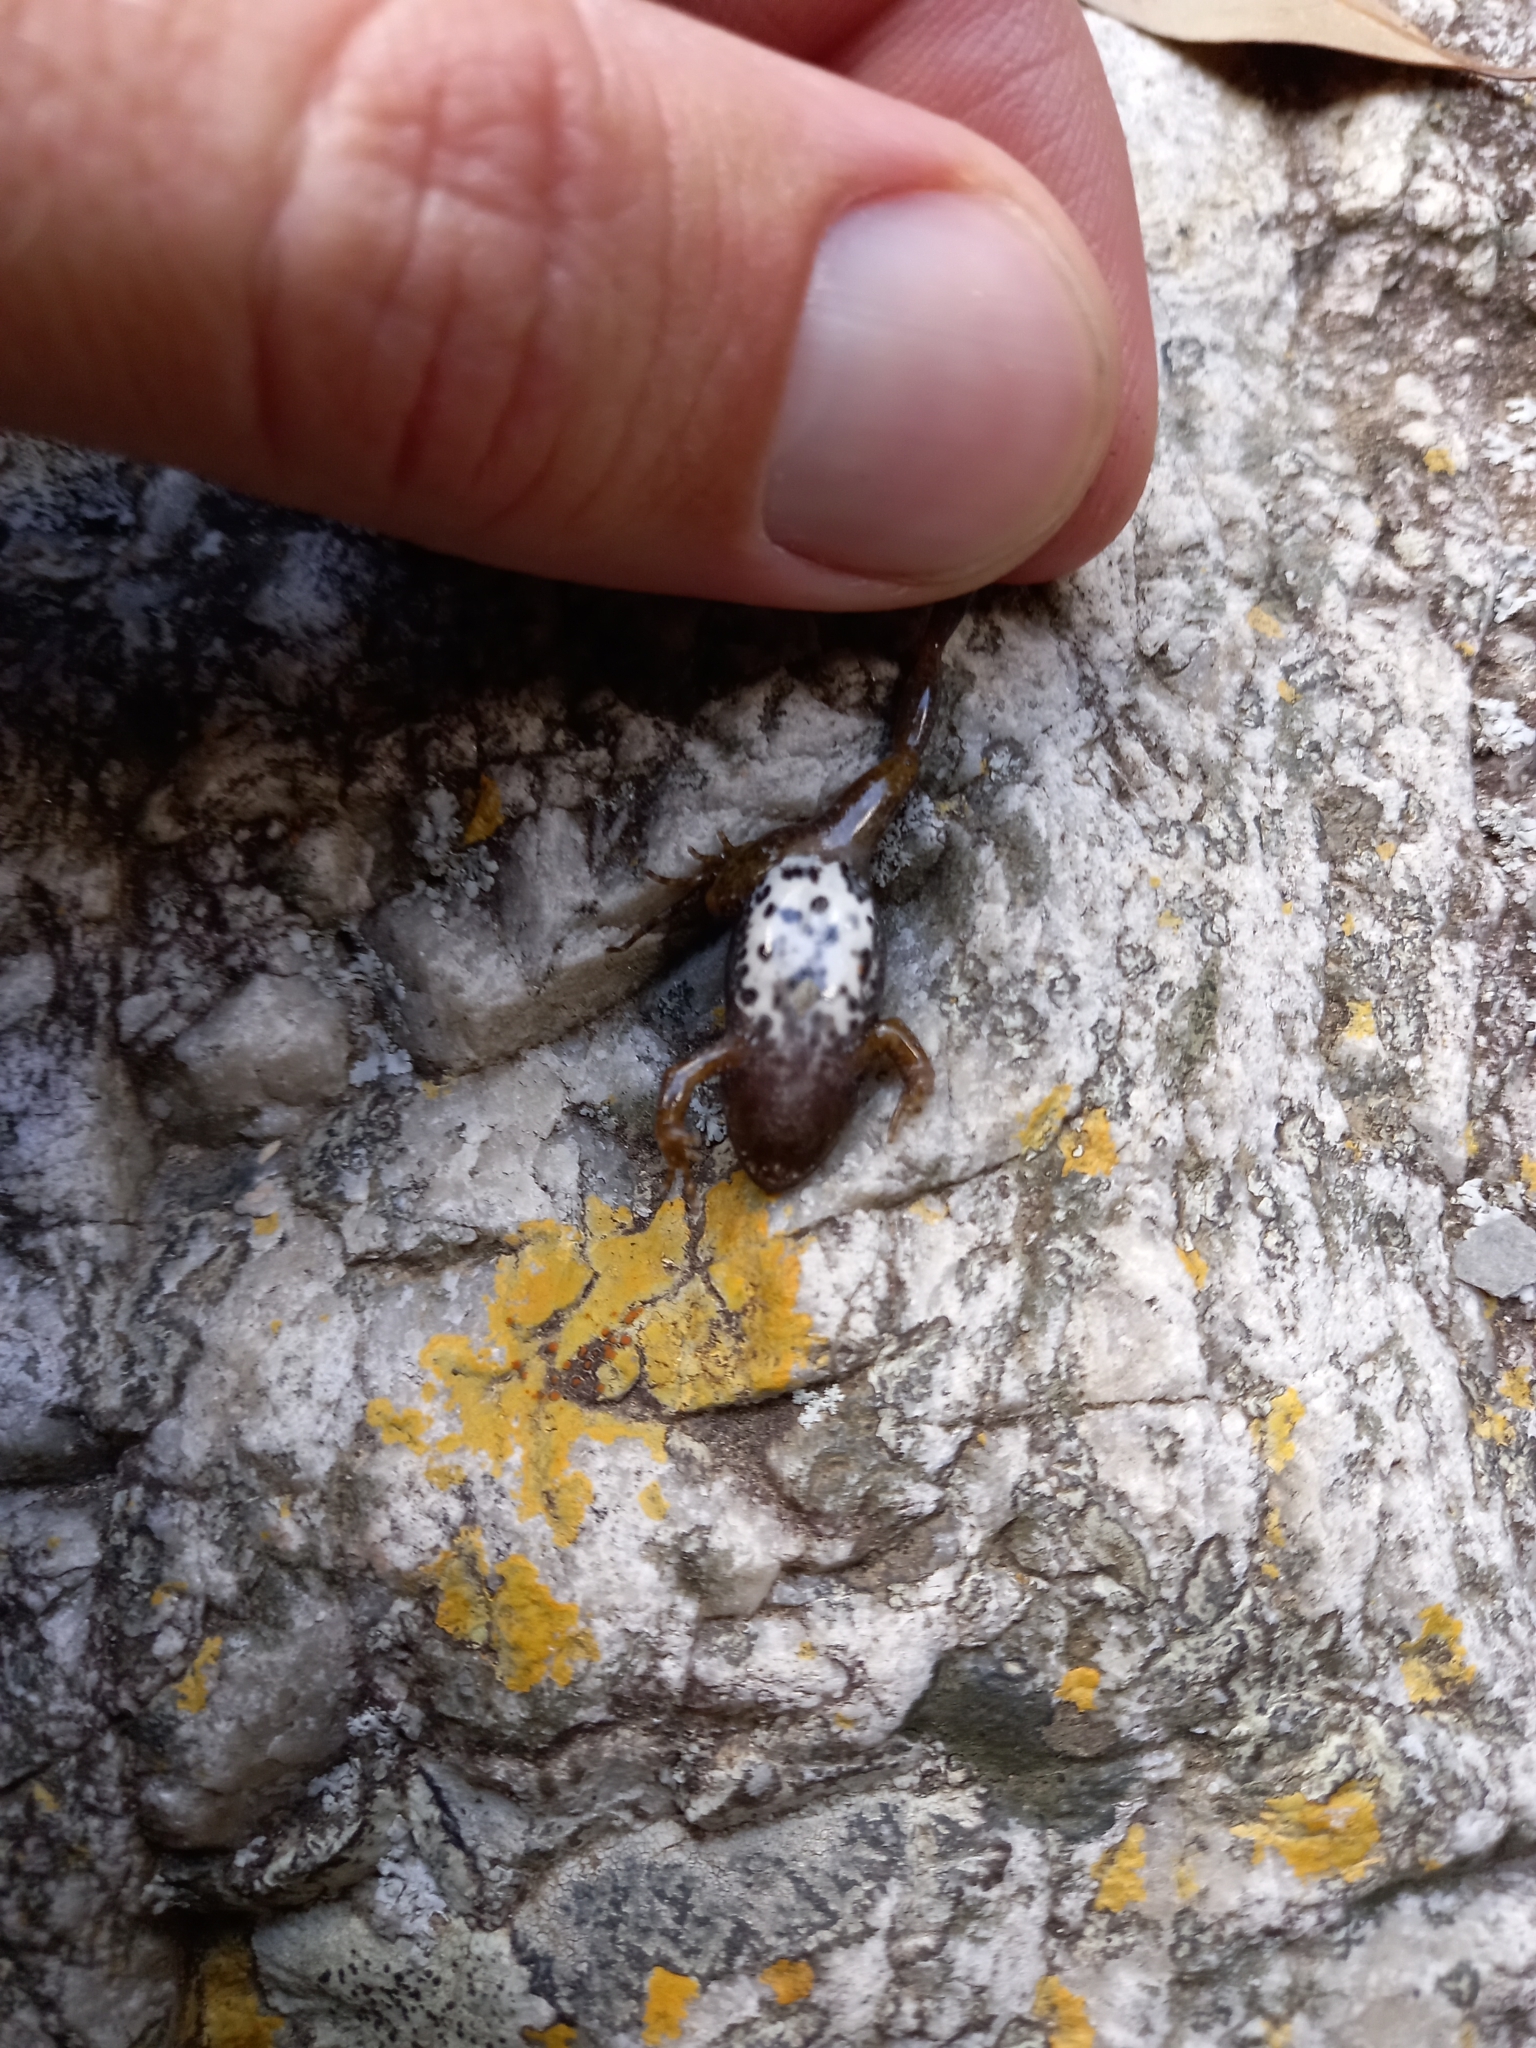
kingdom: Animalia
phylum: Chordata
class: Amphibia
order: Anura
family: Pyxicephalidae
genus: Cacosternum
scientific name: Cacosternum boettgeri
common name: Boettger's frog
